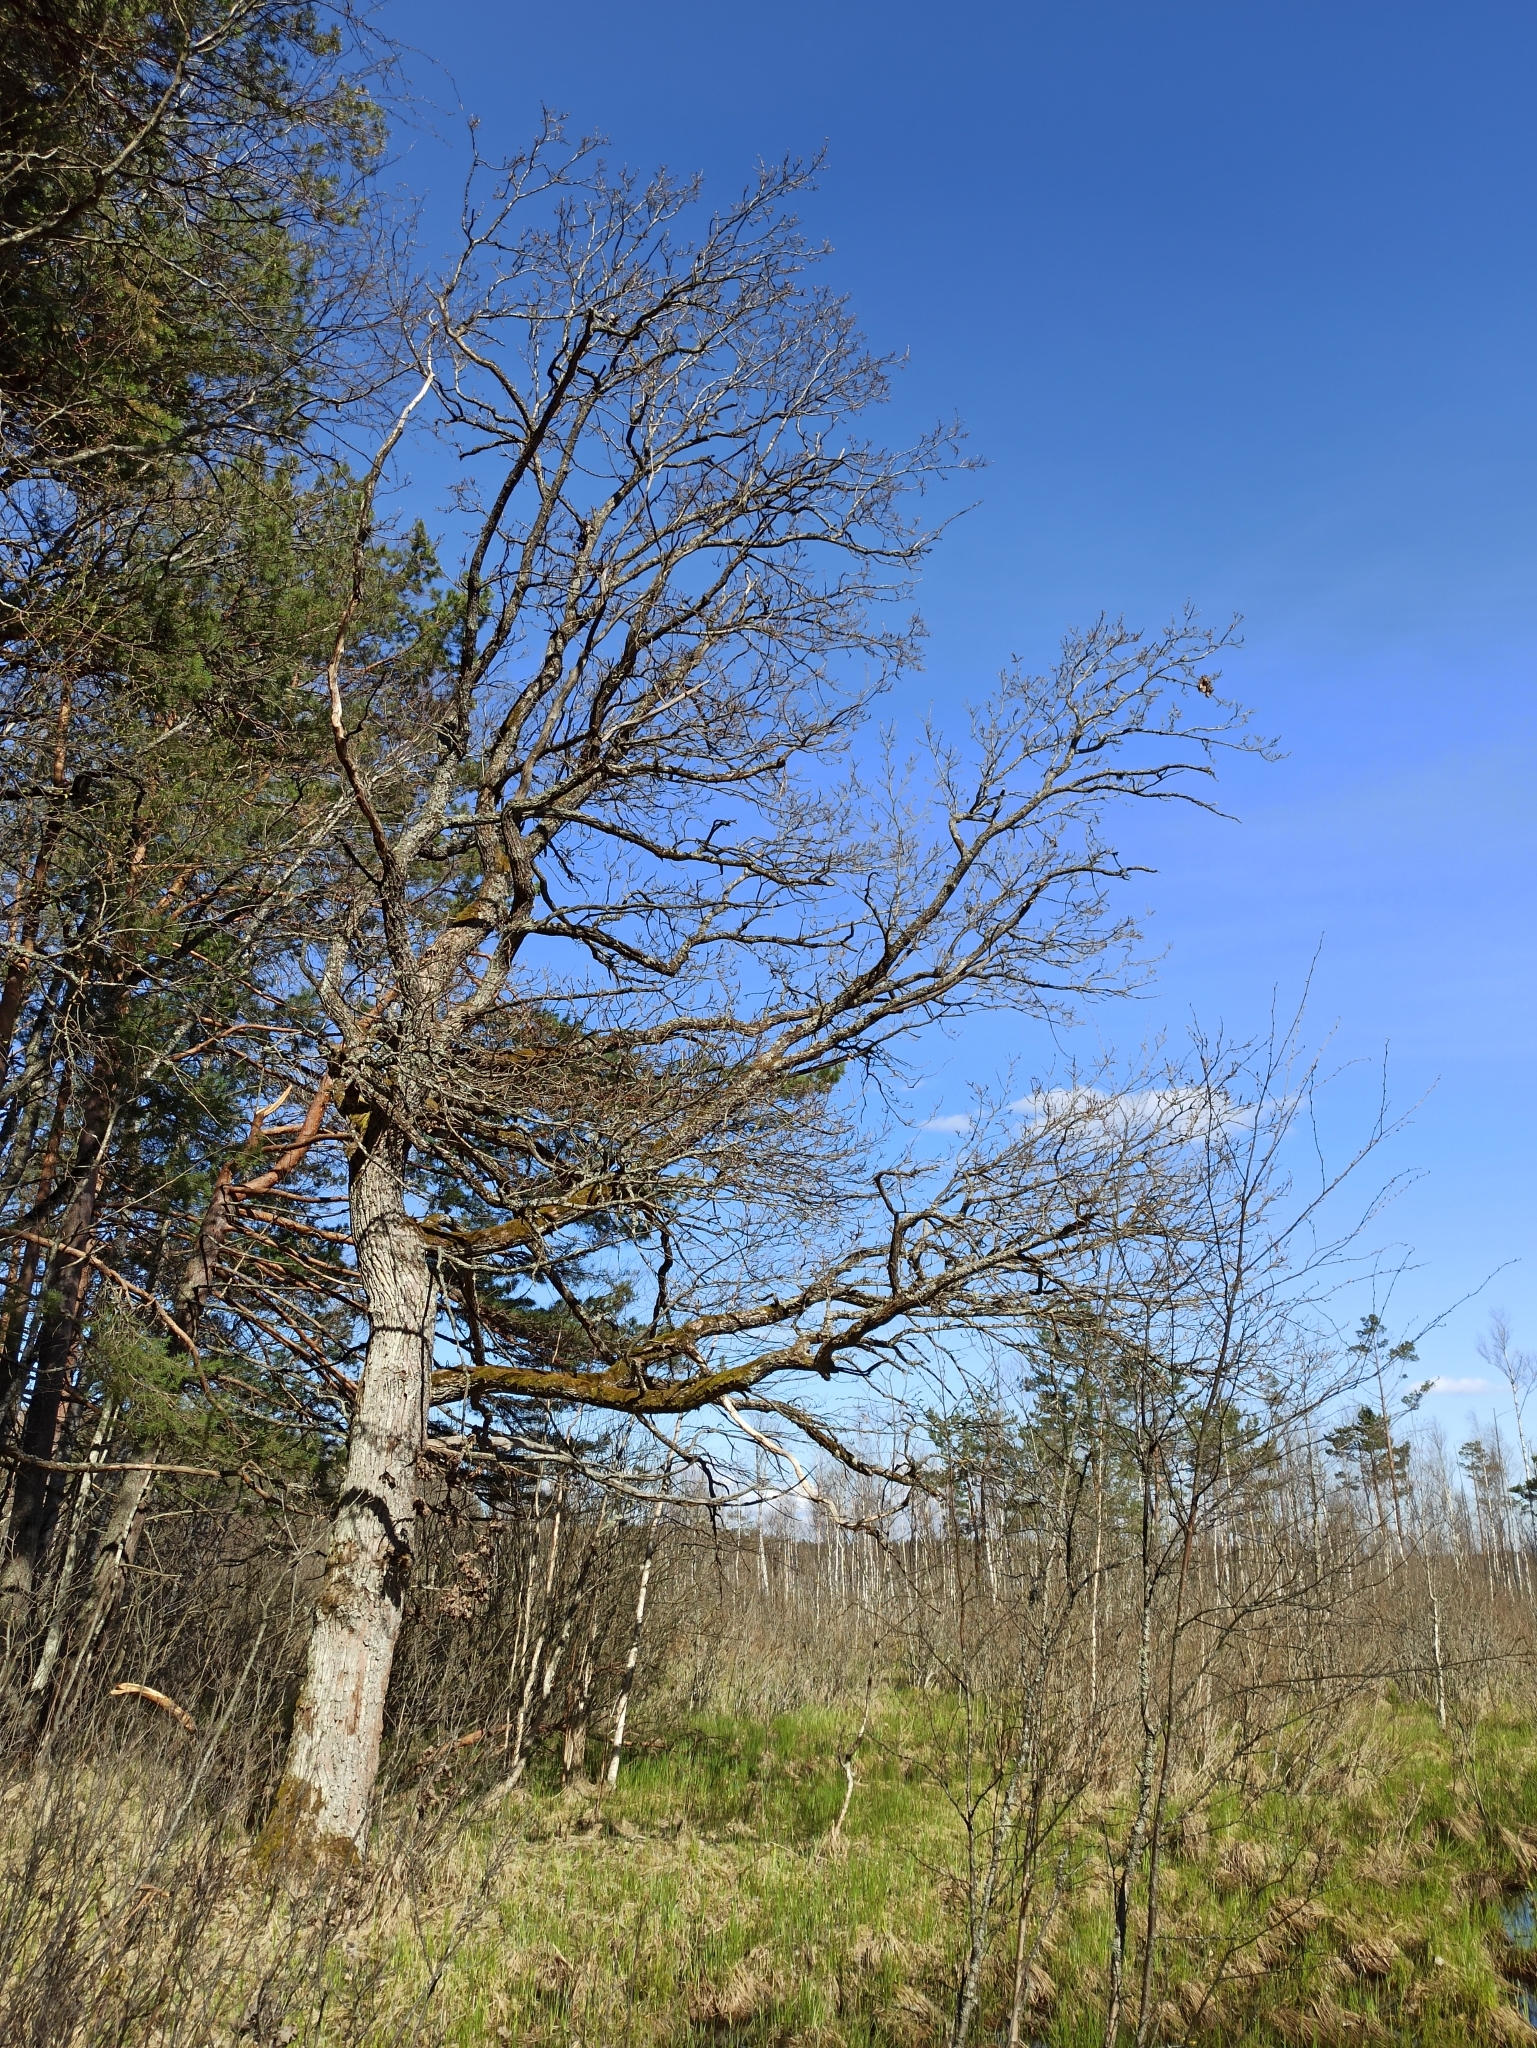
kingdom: Plantae
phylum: Tracheophyta
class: Magnoliopsida
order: Fagales
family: Fagaceae
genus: Quercus
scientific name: Quercus robur
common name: Pedunculate oak
